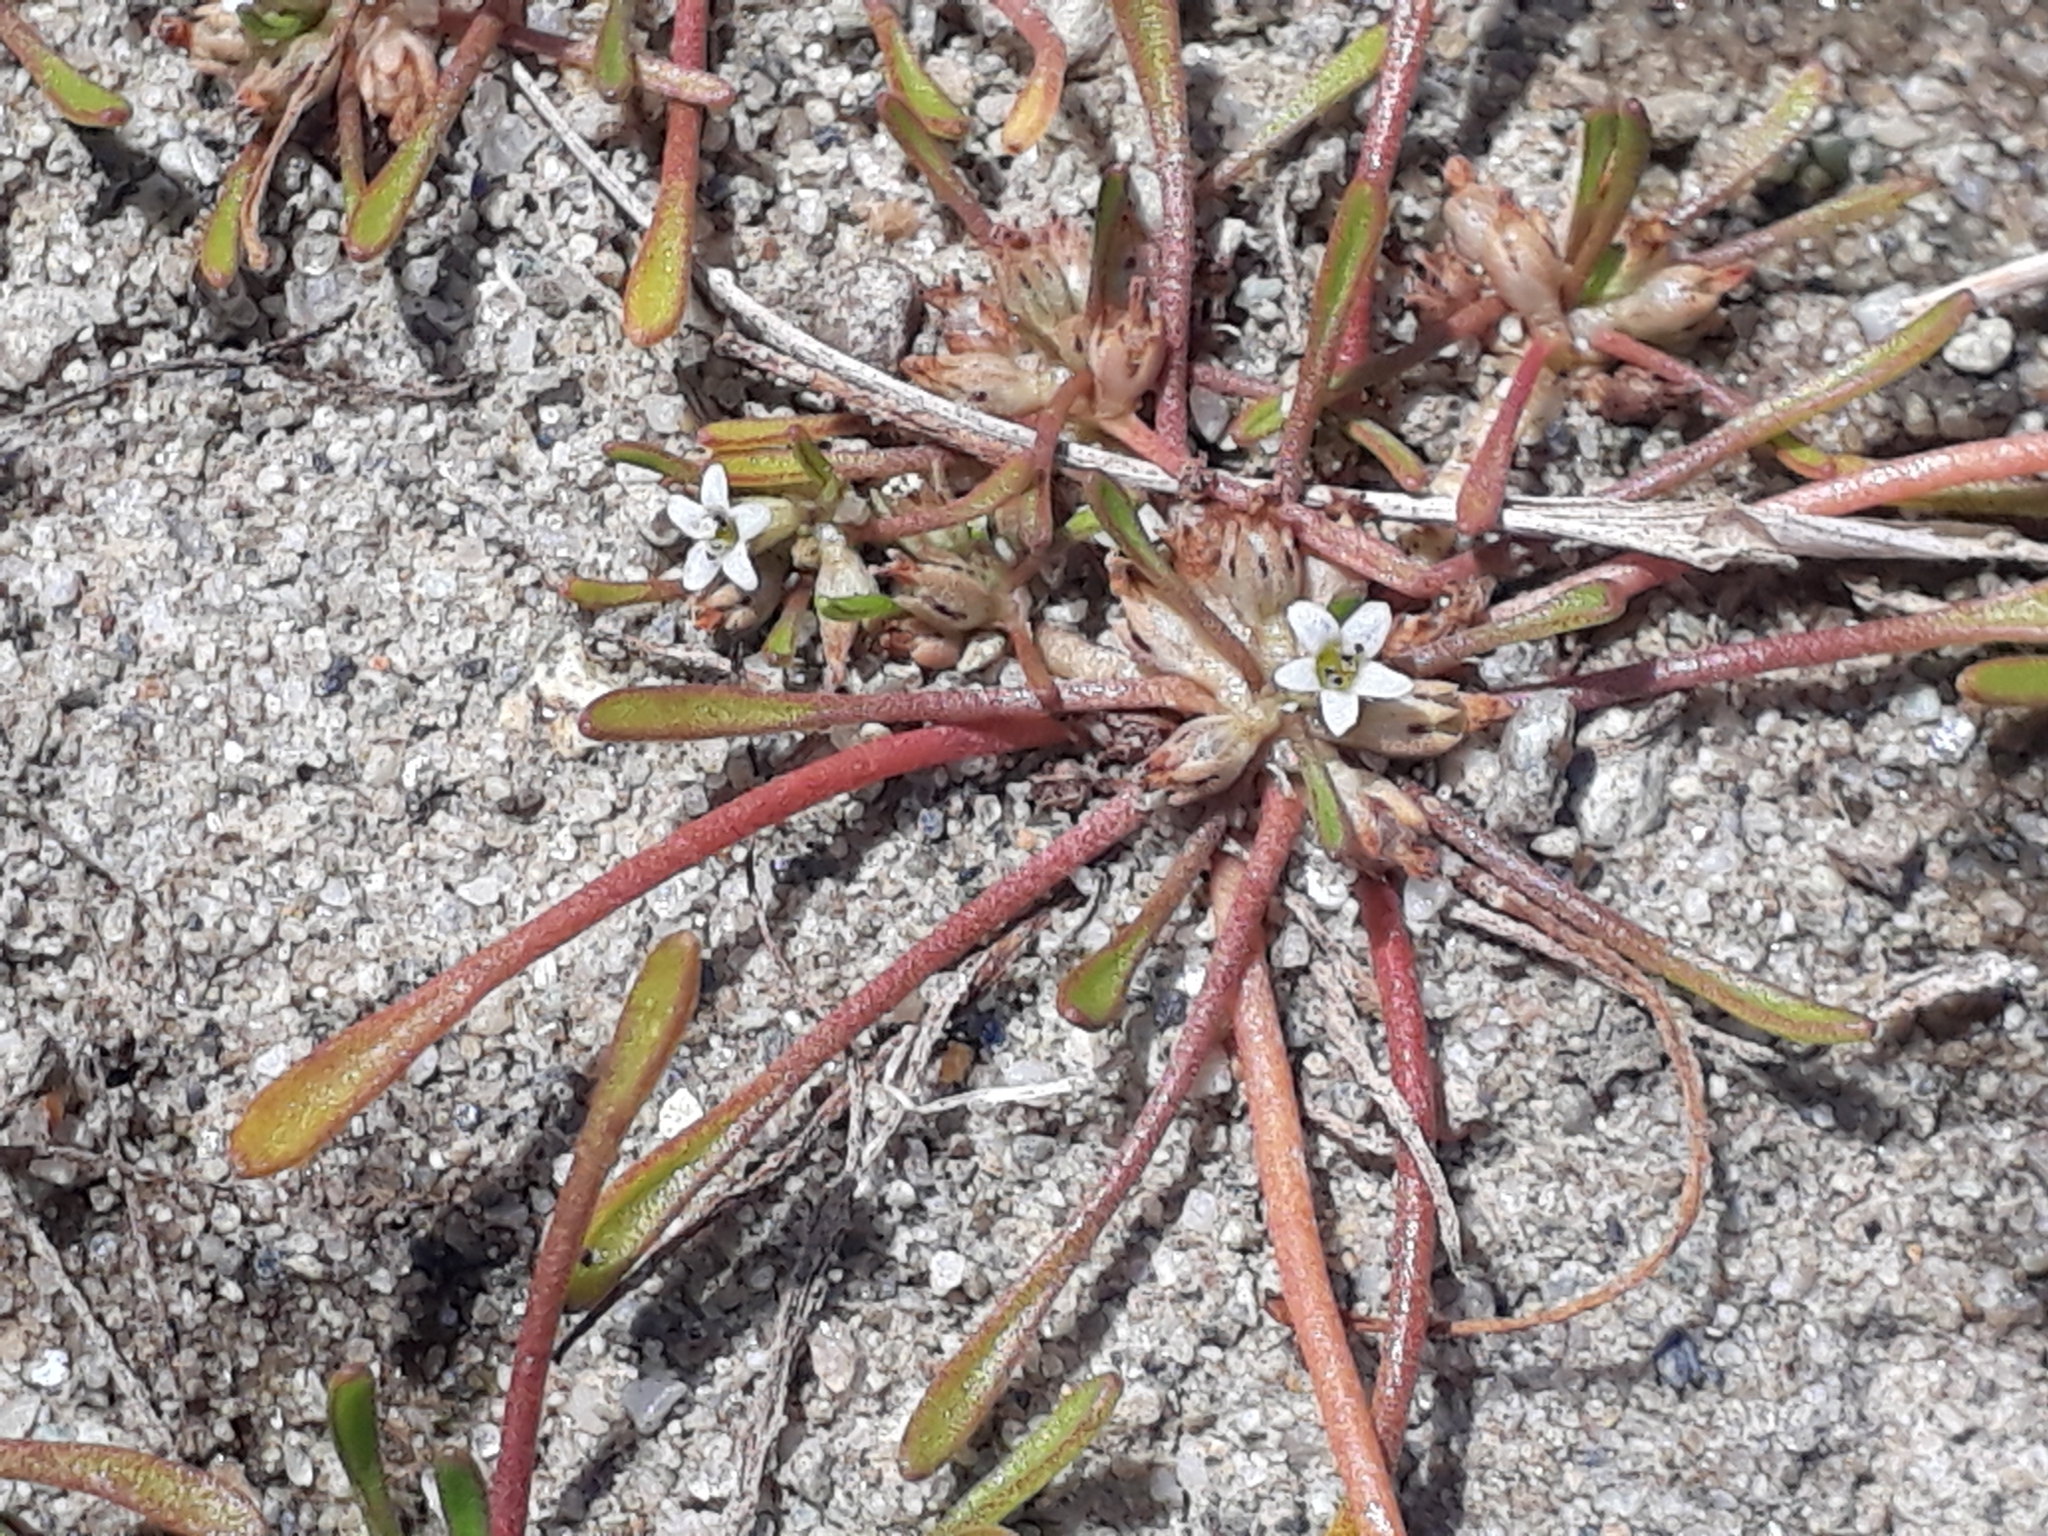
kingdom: Plantae
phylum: Tracheophyta
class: Magnoliopsida
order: Lamiales
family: Scrophulariaceae
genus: Limosella
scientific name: Limosella australis
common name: Welsh mudwort
